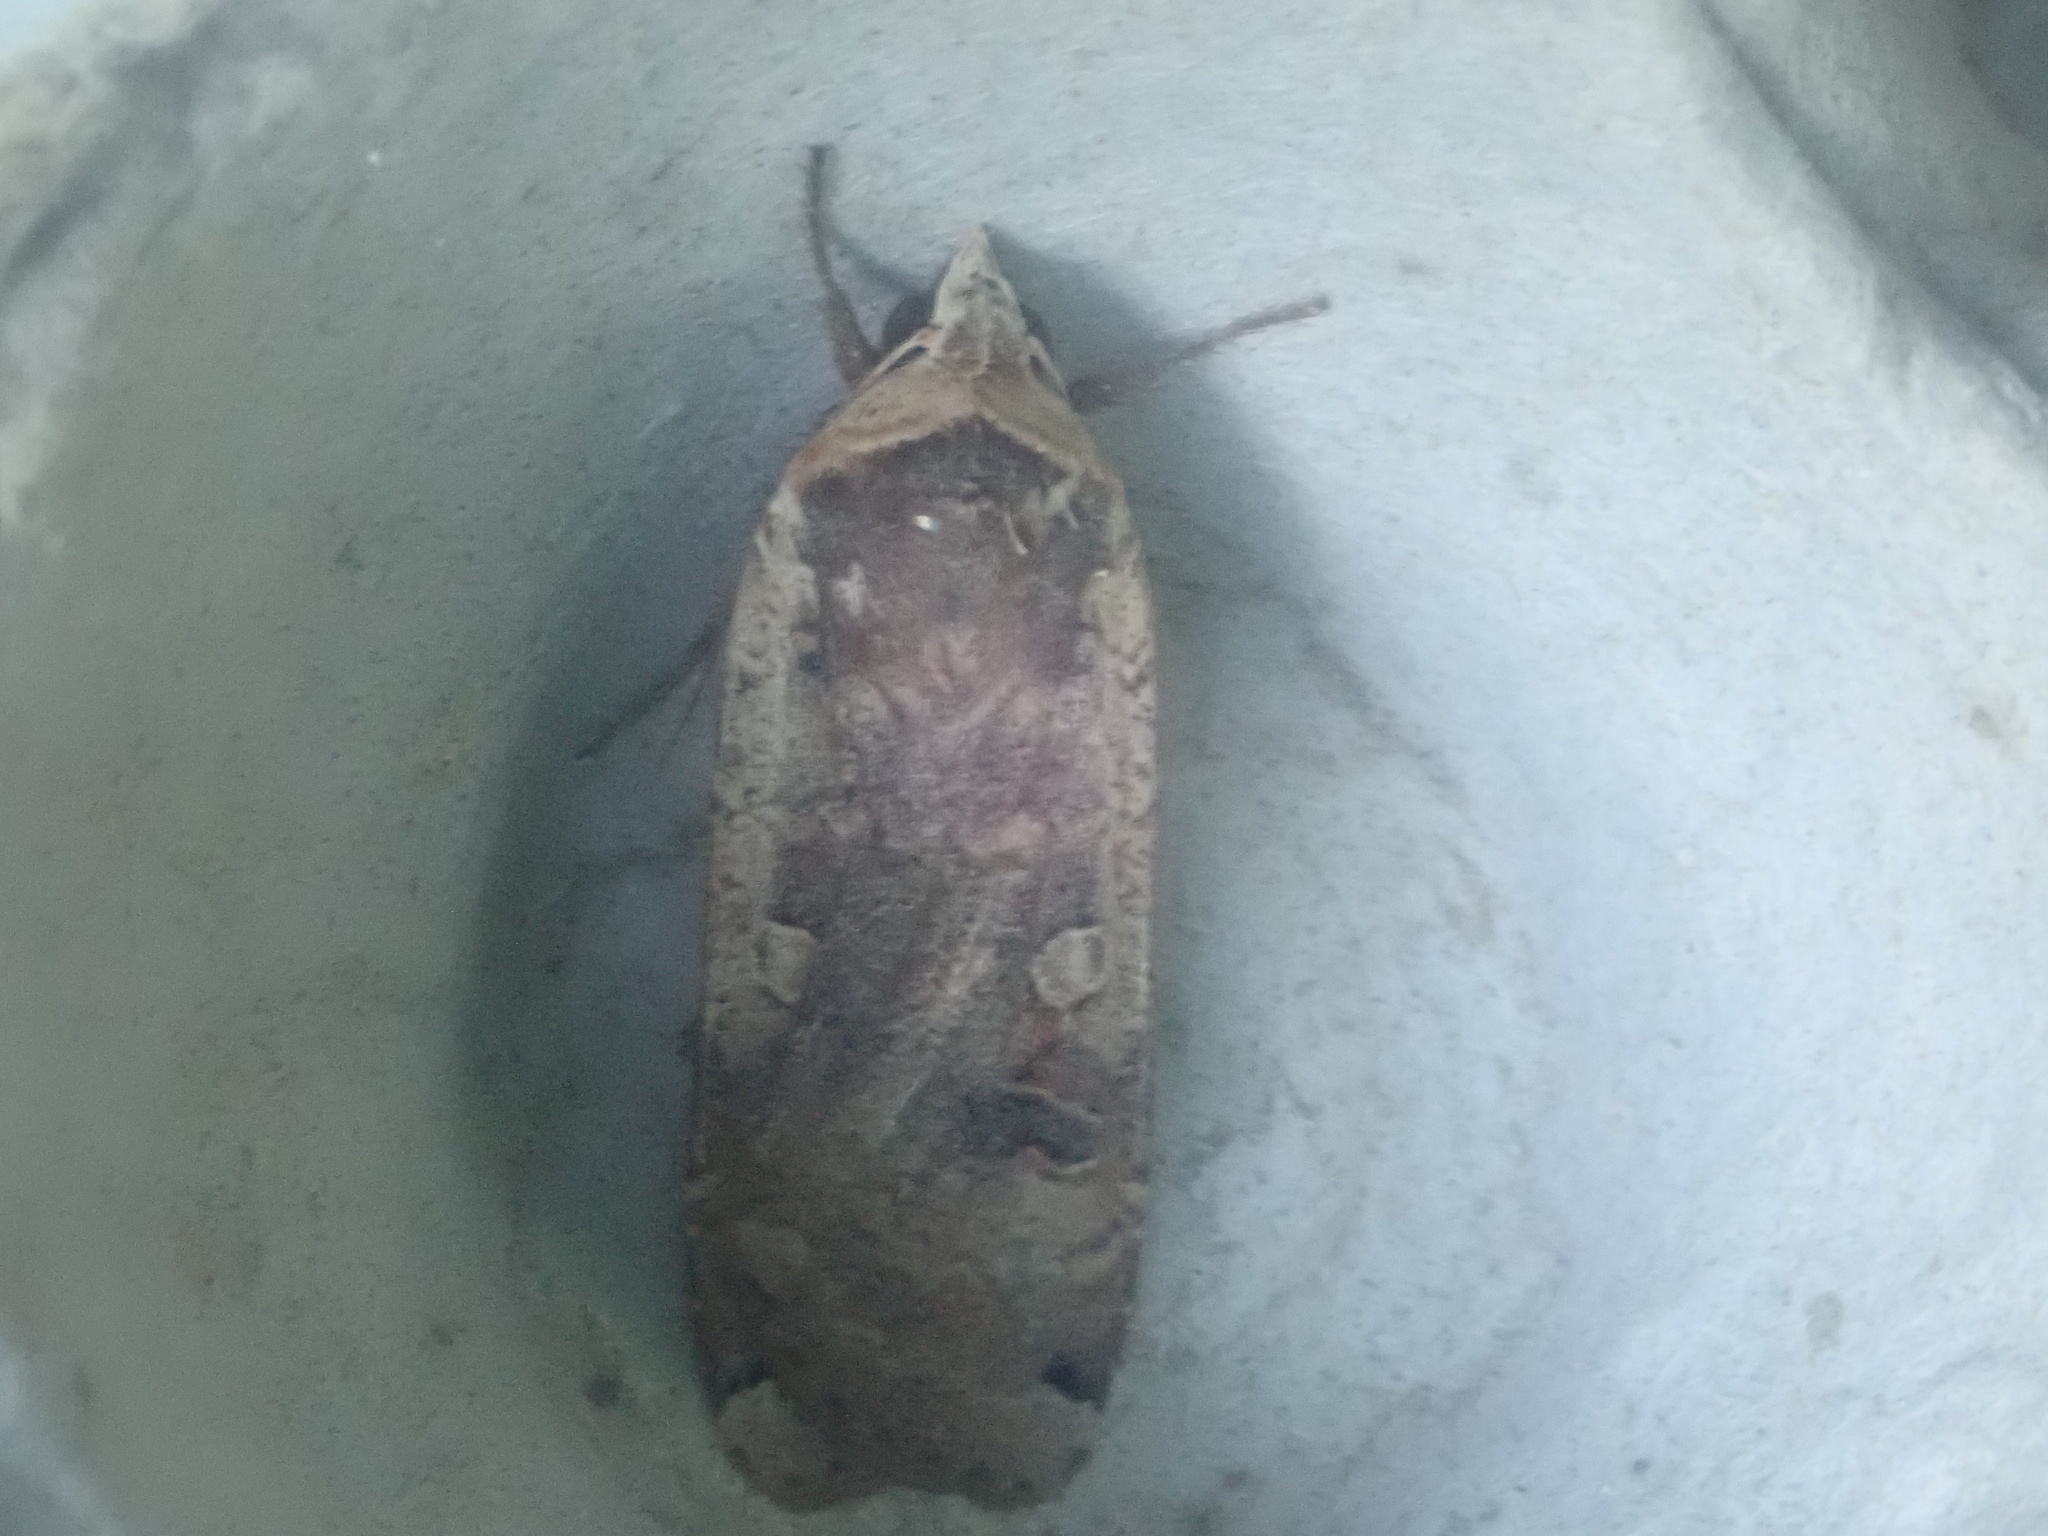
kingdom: Animalia
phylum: Arthropoda
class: Insecta
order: Lepidoptera
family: Noctuidae
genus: Noctua
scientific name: Noctua pronuba
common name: Large yellow underwing
